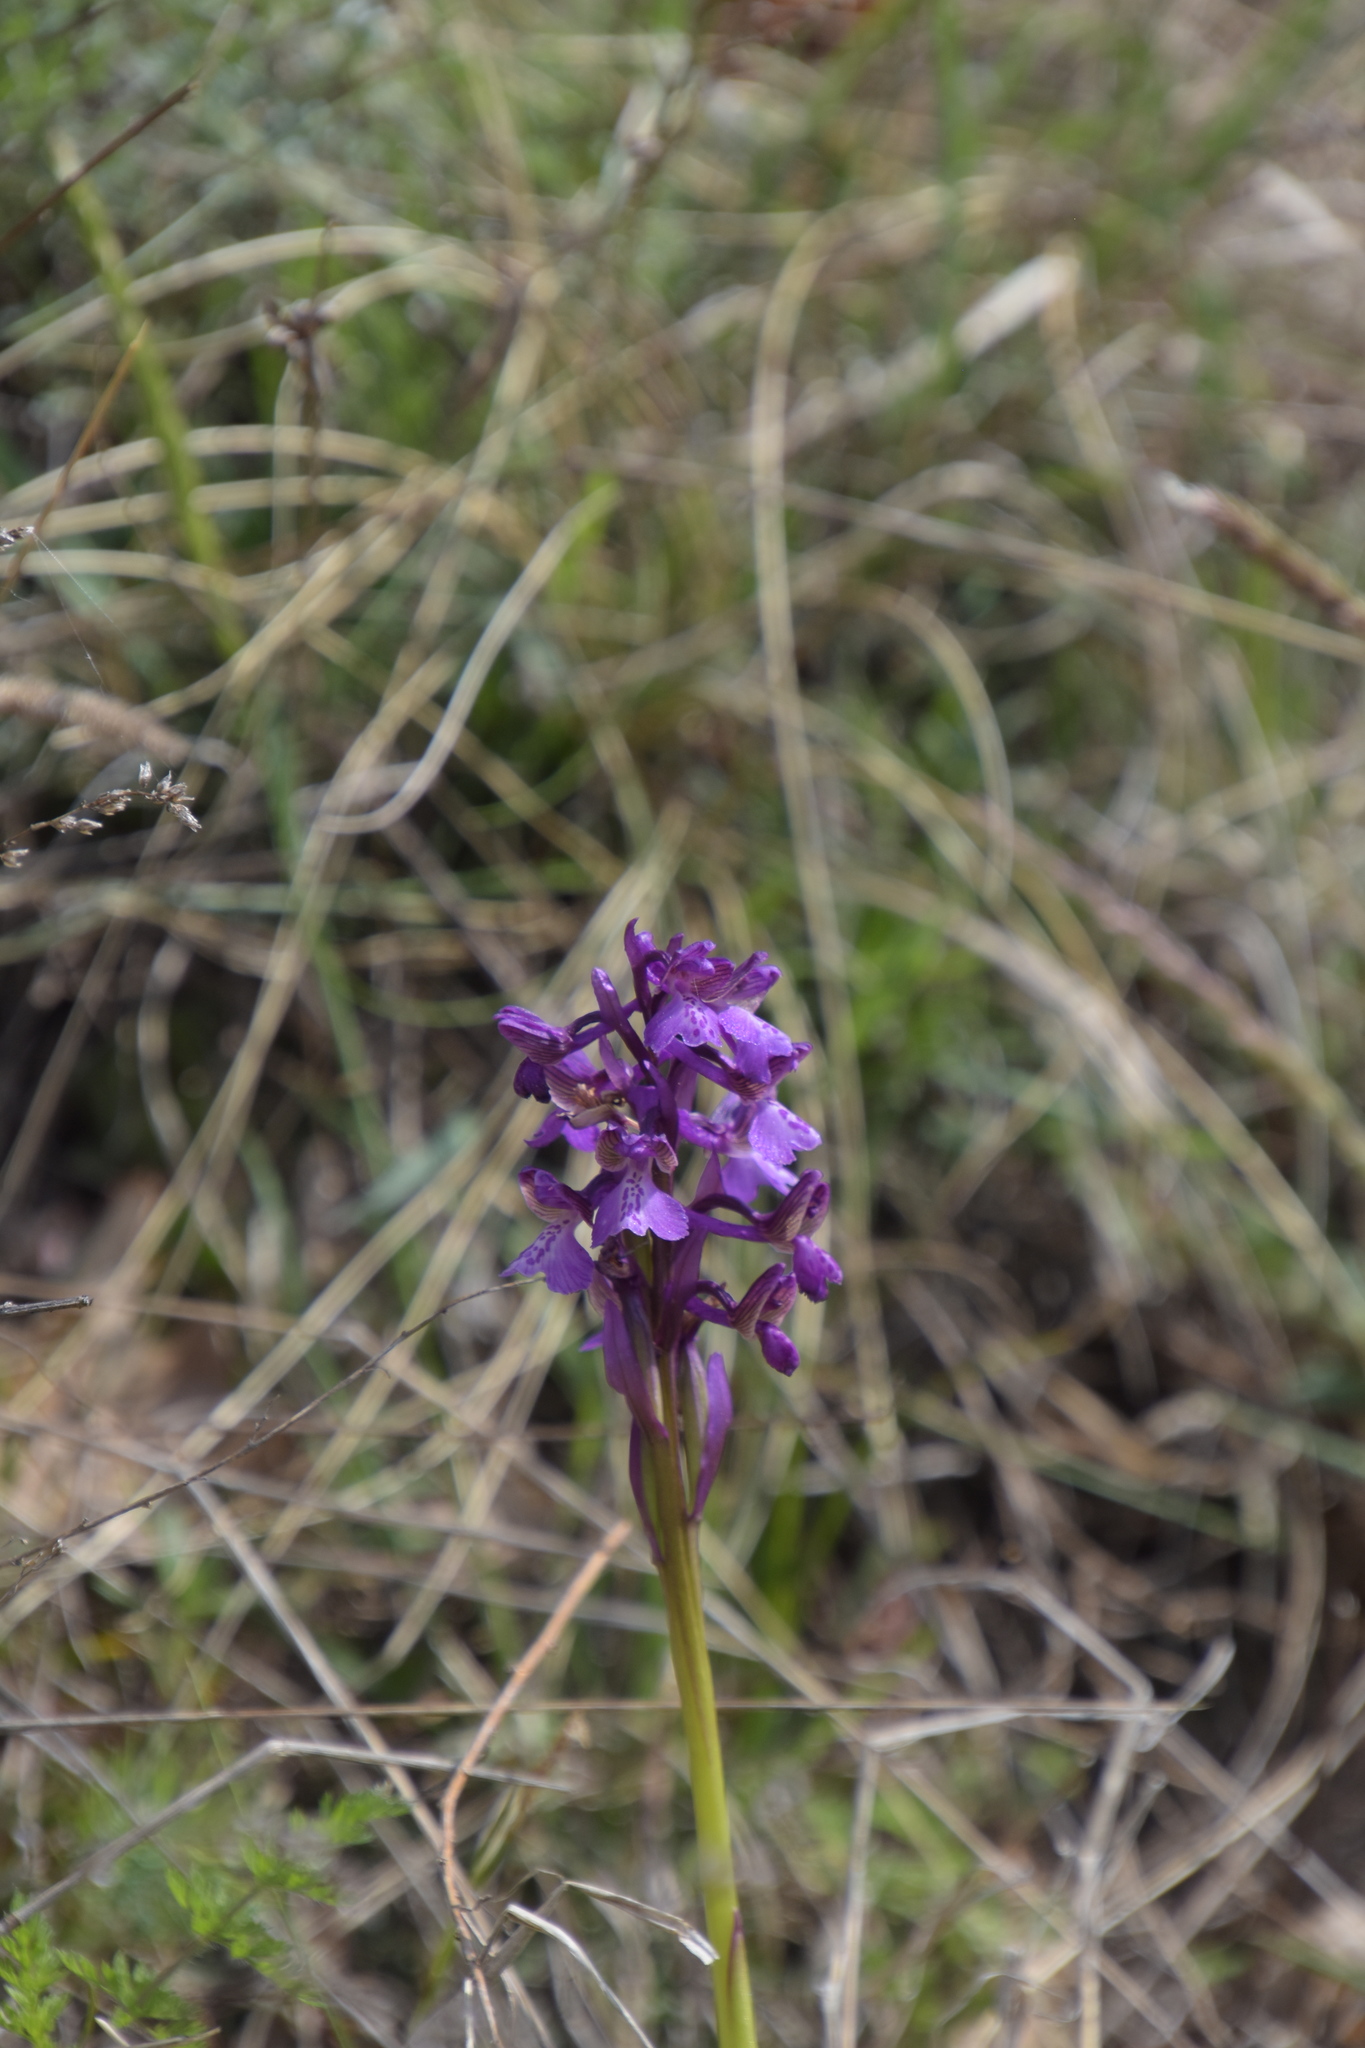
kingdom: Plantae
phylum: Tracheophyta
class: Liliopsida
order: Asparagales
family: Orchidaceae
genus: Anacamptis
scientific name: Anacamptis morio
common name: Green-winged orchid
